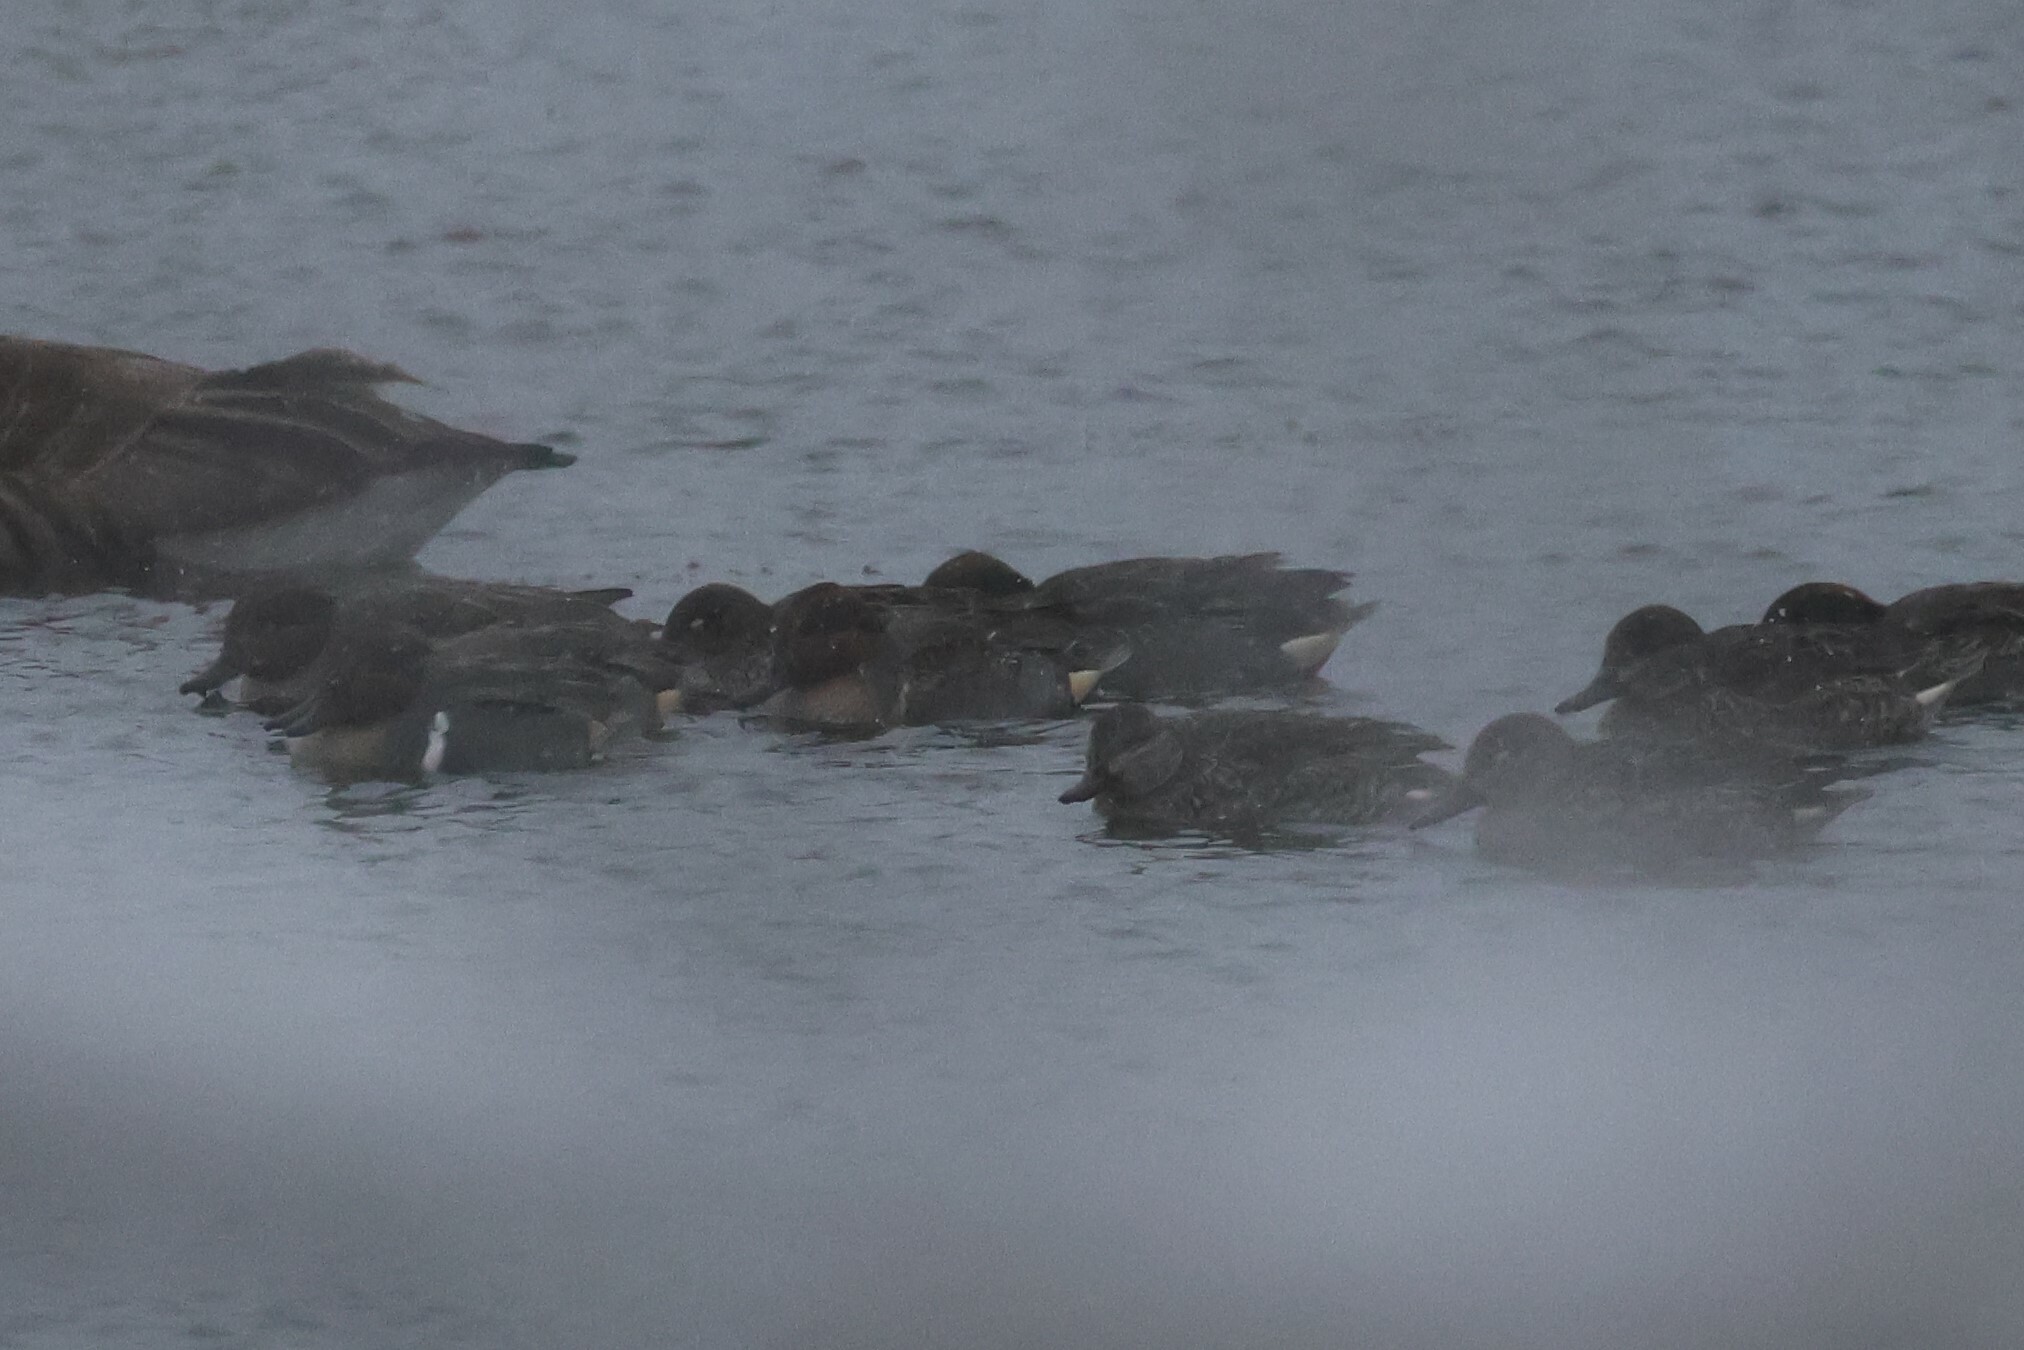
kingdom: Animalia
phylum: Chordata
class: Aves
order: Anseriformes
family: Anatidae
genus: Anas
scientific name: Anas carolinensis
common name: Green-winged teal
